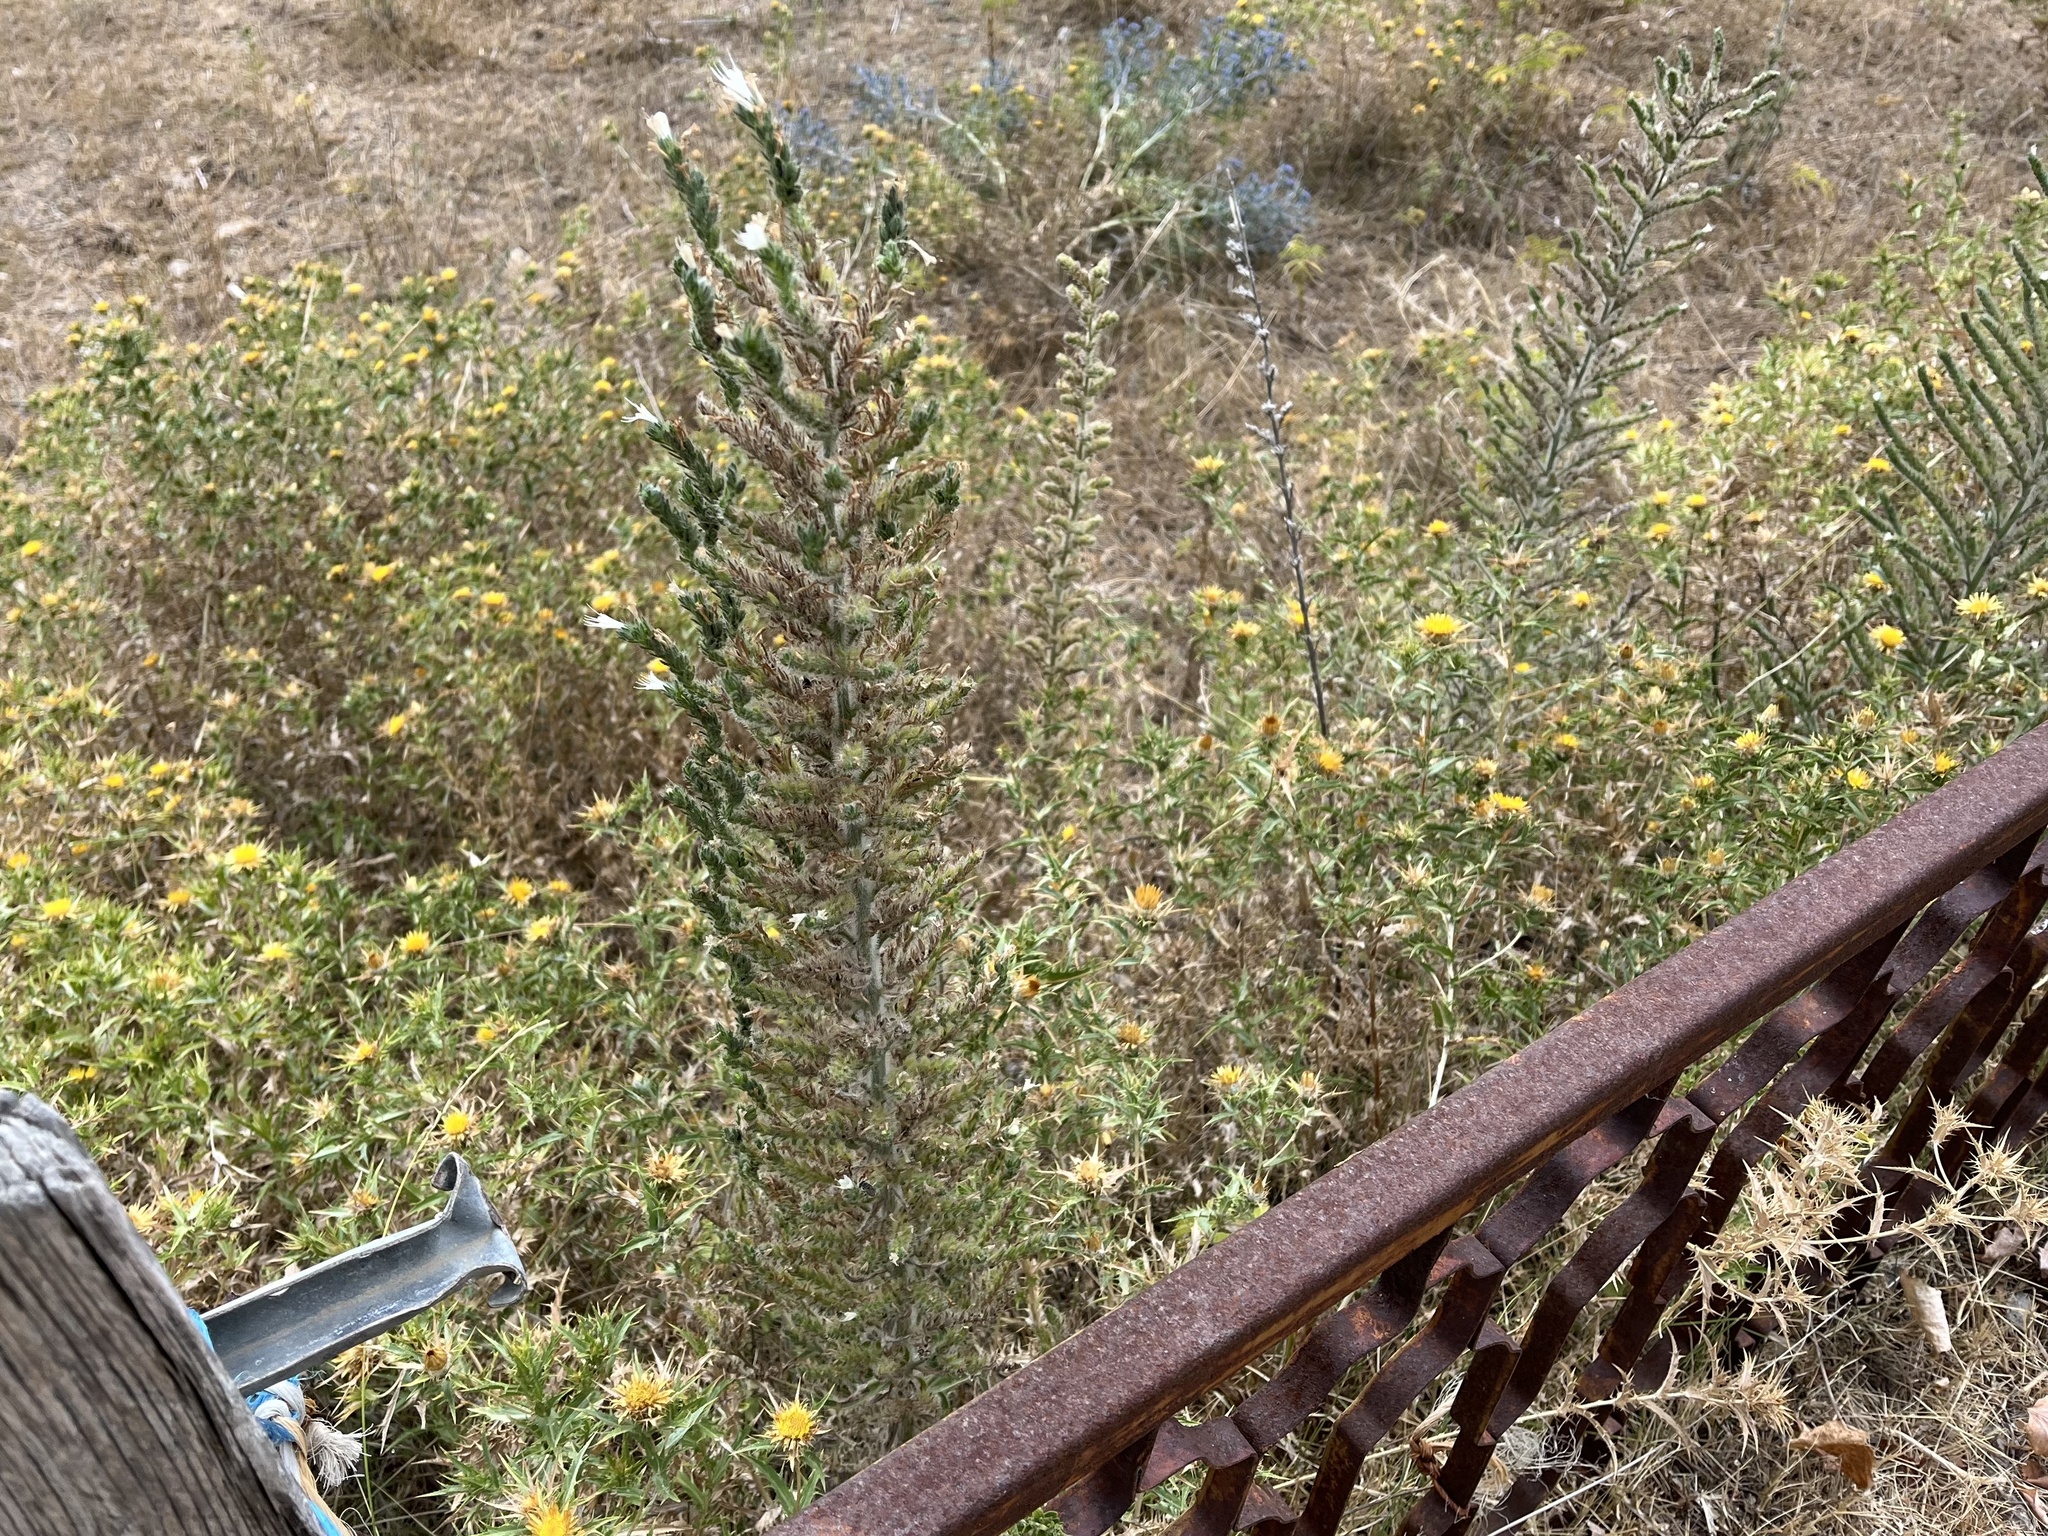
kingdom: Plantae
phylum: Tracheophyta
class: Magnoliopsida
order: Boraginales
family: Boraginaceae
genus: Echium
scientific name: Echium italicum
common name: Italian viper's bugloss
